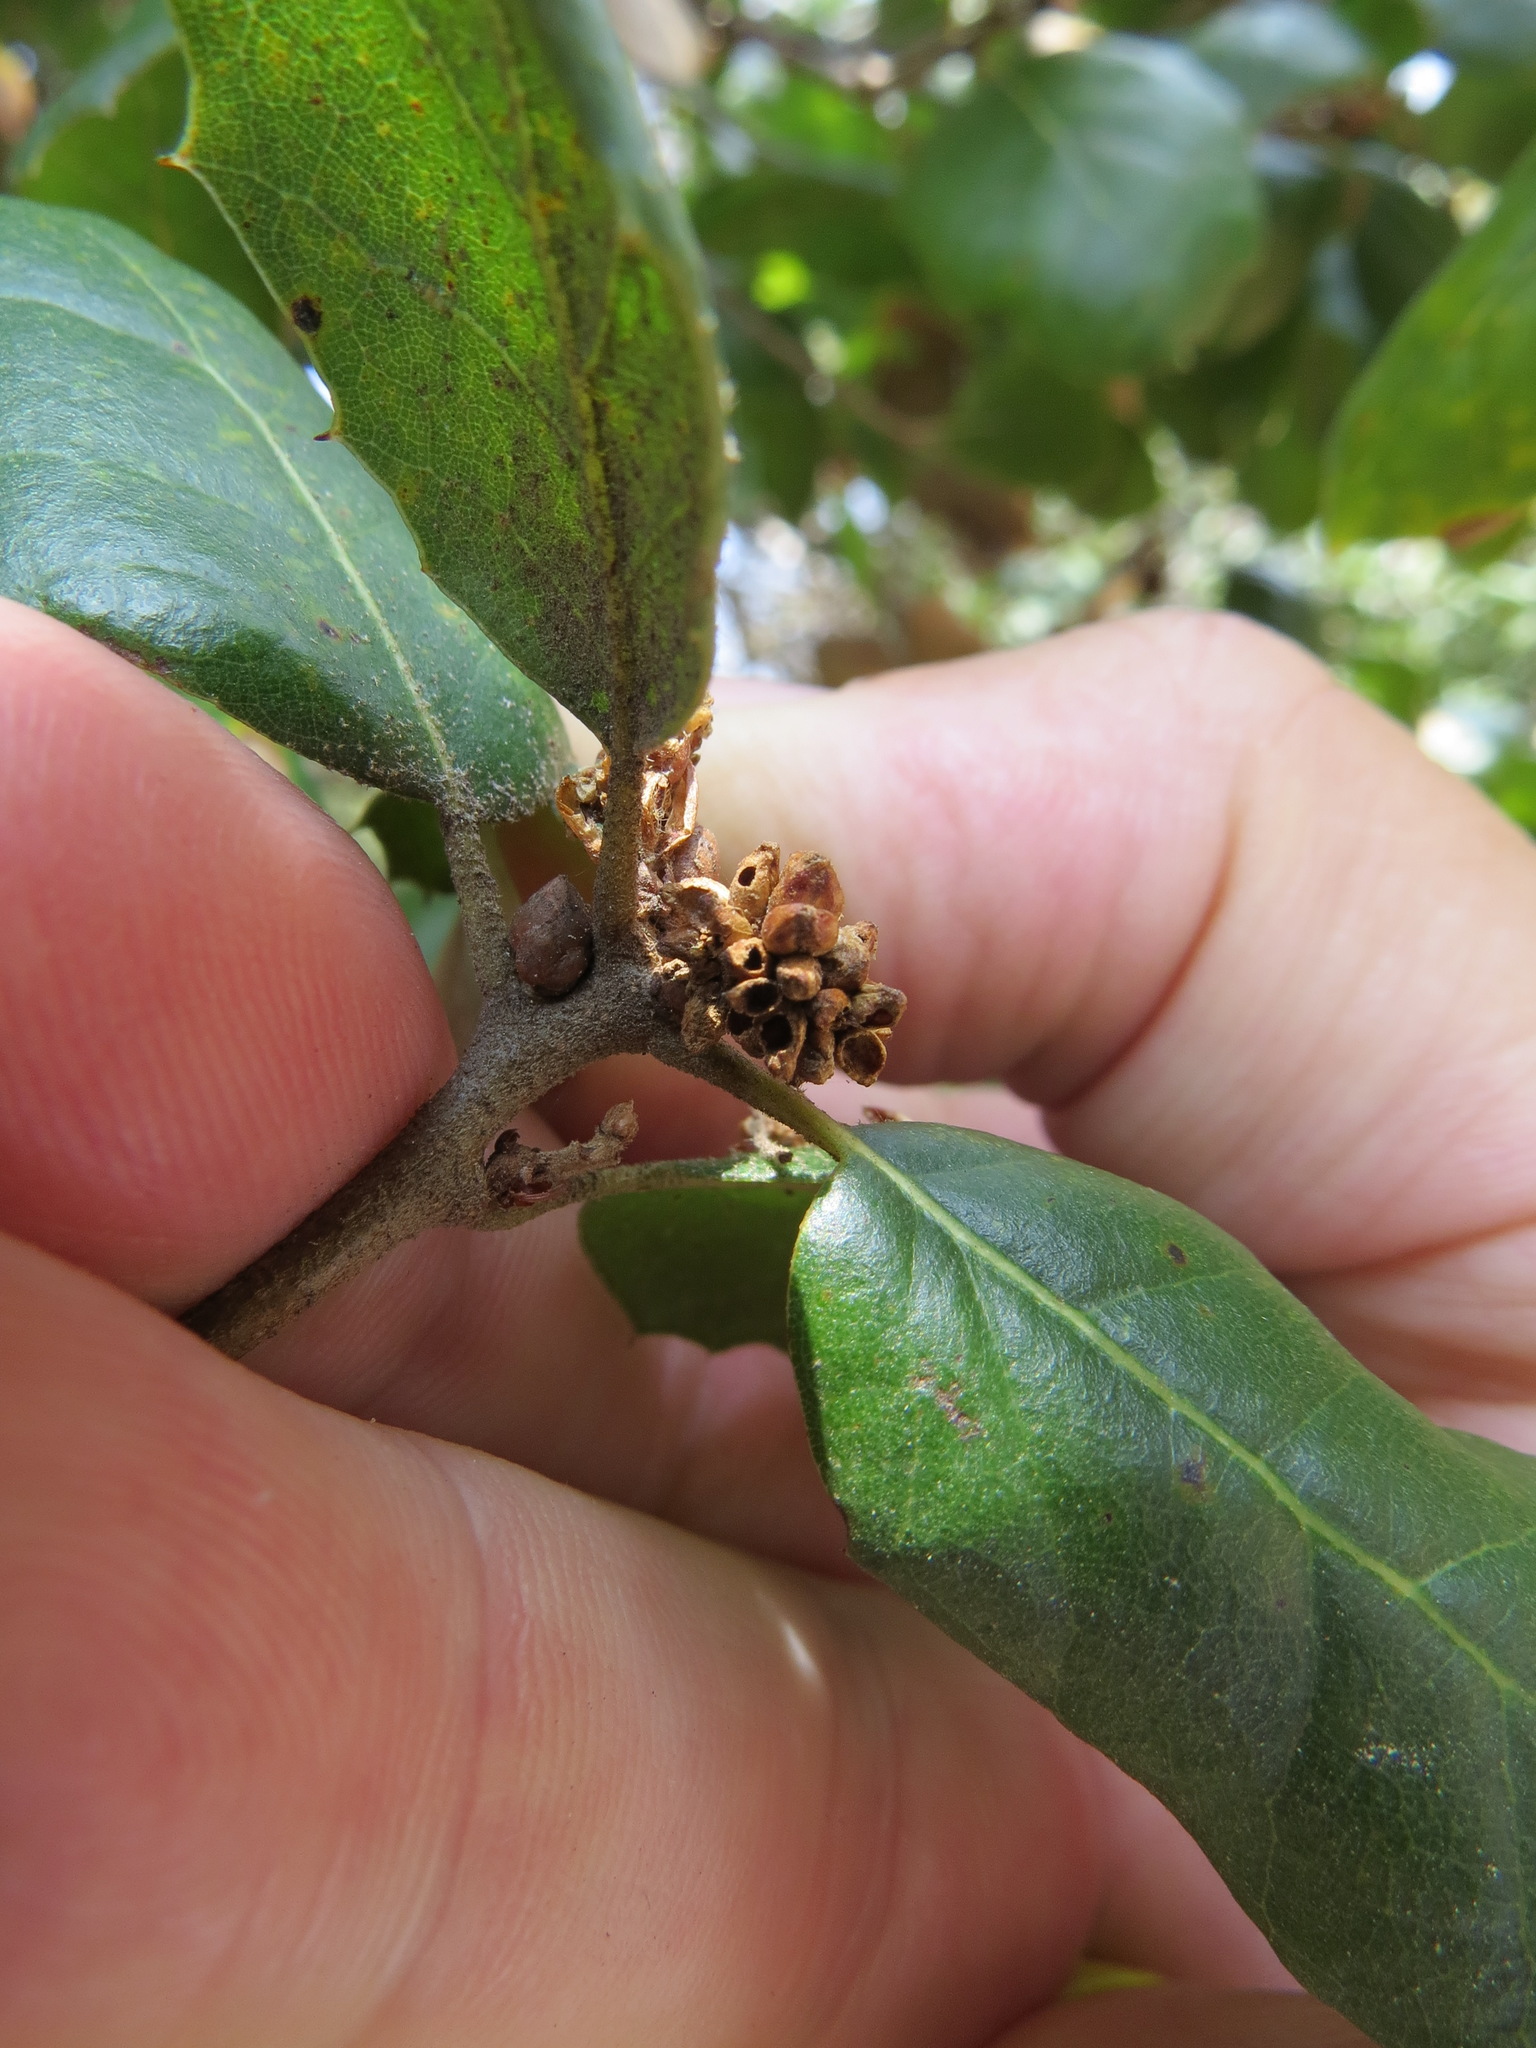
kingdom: Animalia
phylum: Arthropoda
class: Insecta
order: Hymenoptera
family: Cynipidae
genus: Callirhytis
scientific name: Callirhytis
